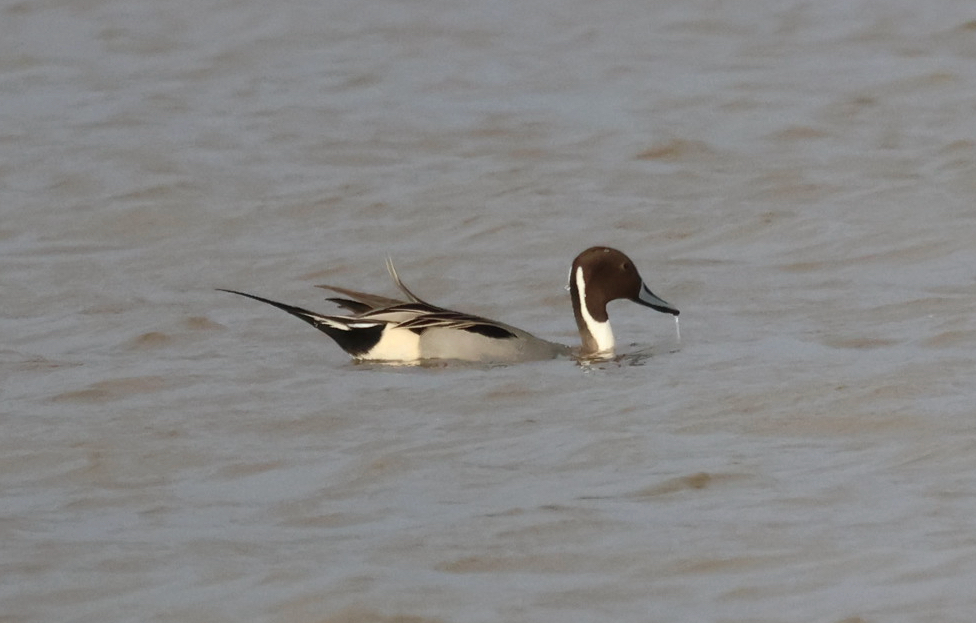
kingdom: Animalia
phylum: Chordata
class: Aves
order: Anseriformes
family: Anatidae
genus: Anas
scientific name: Anas acuta
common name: Northern pintail
